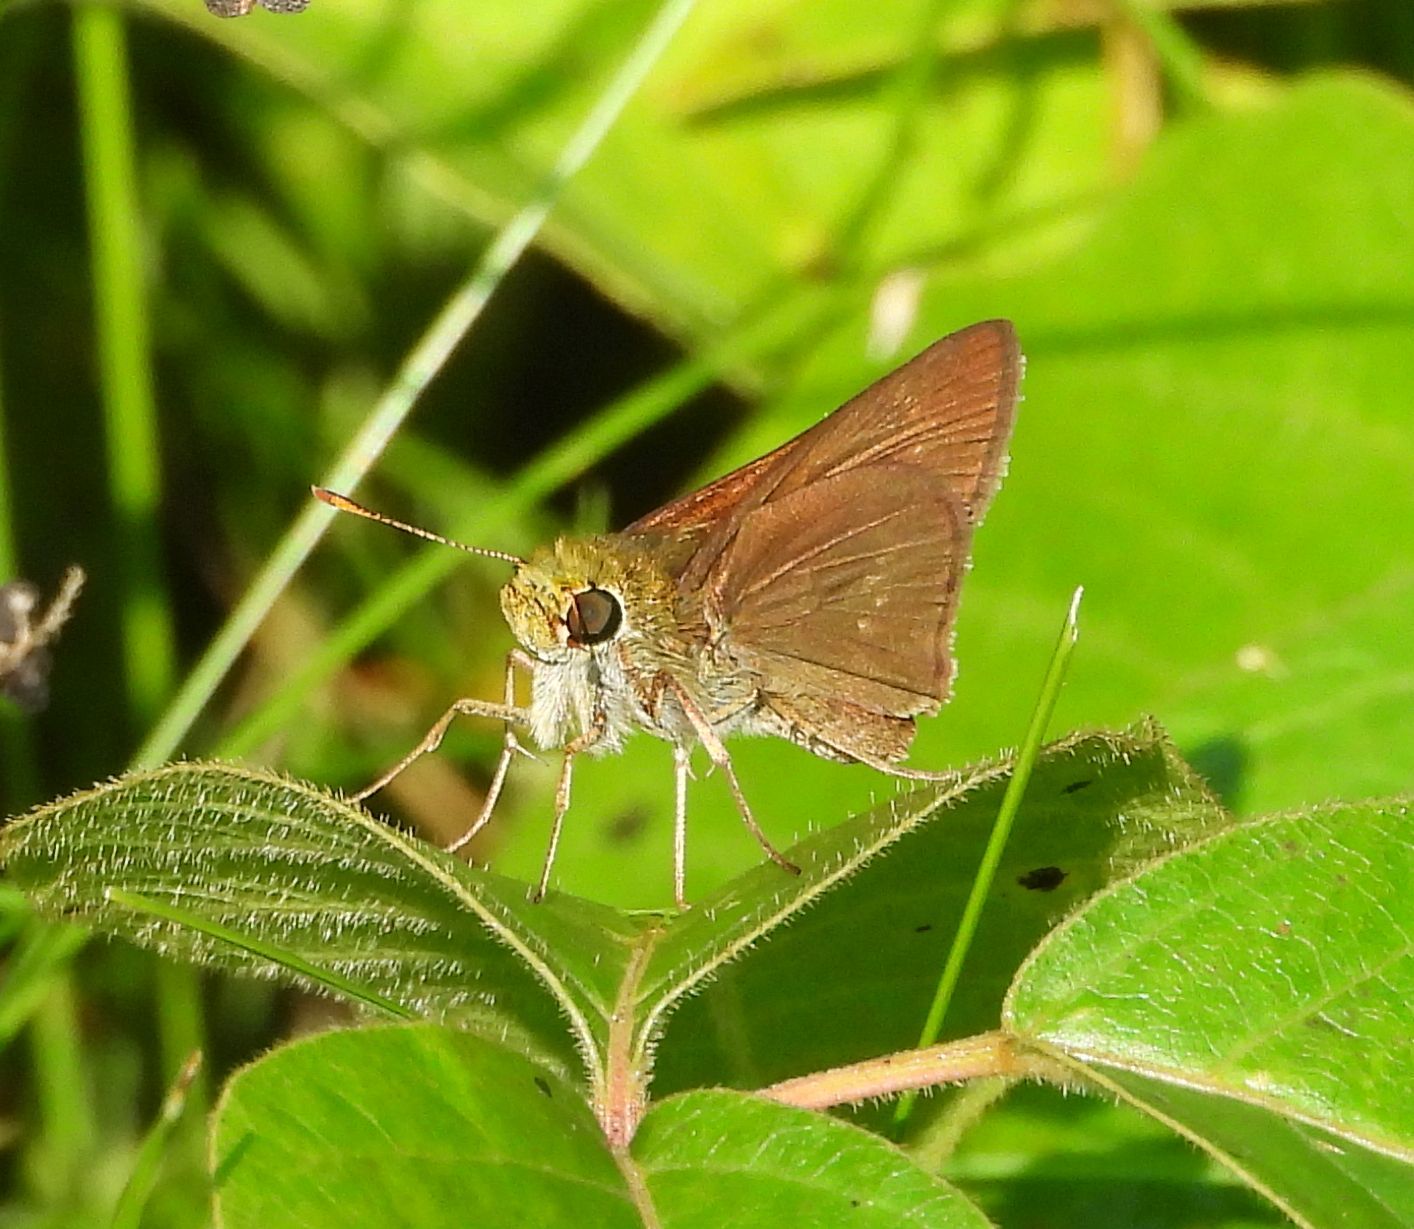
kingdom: Animalia
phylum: Arthropoda
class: Insecta
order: Lepidoptera
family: Hesperiidae
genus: Euphyes
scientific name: Euphyes vestris
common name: Dun skipper
